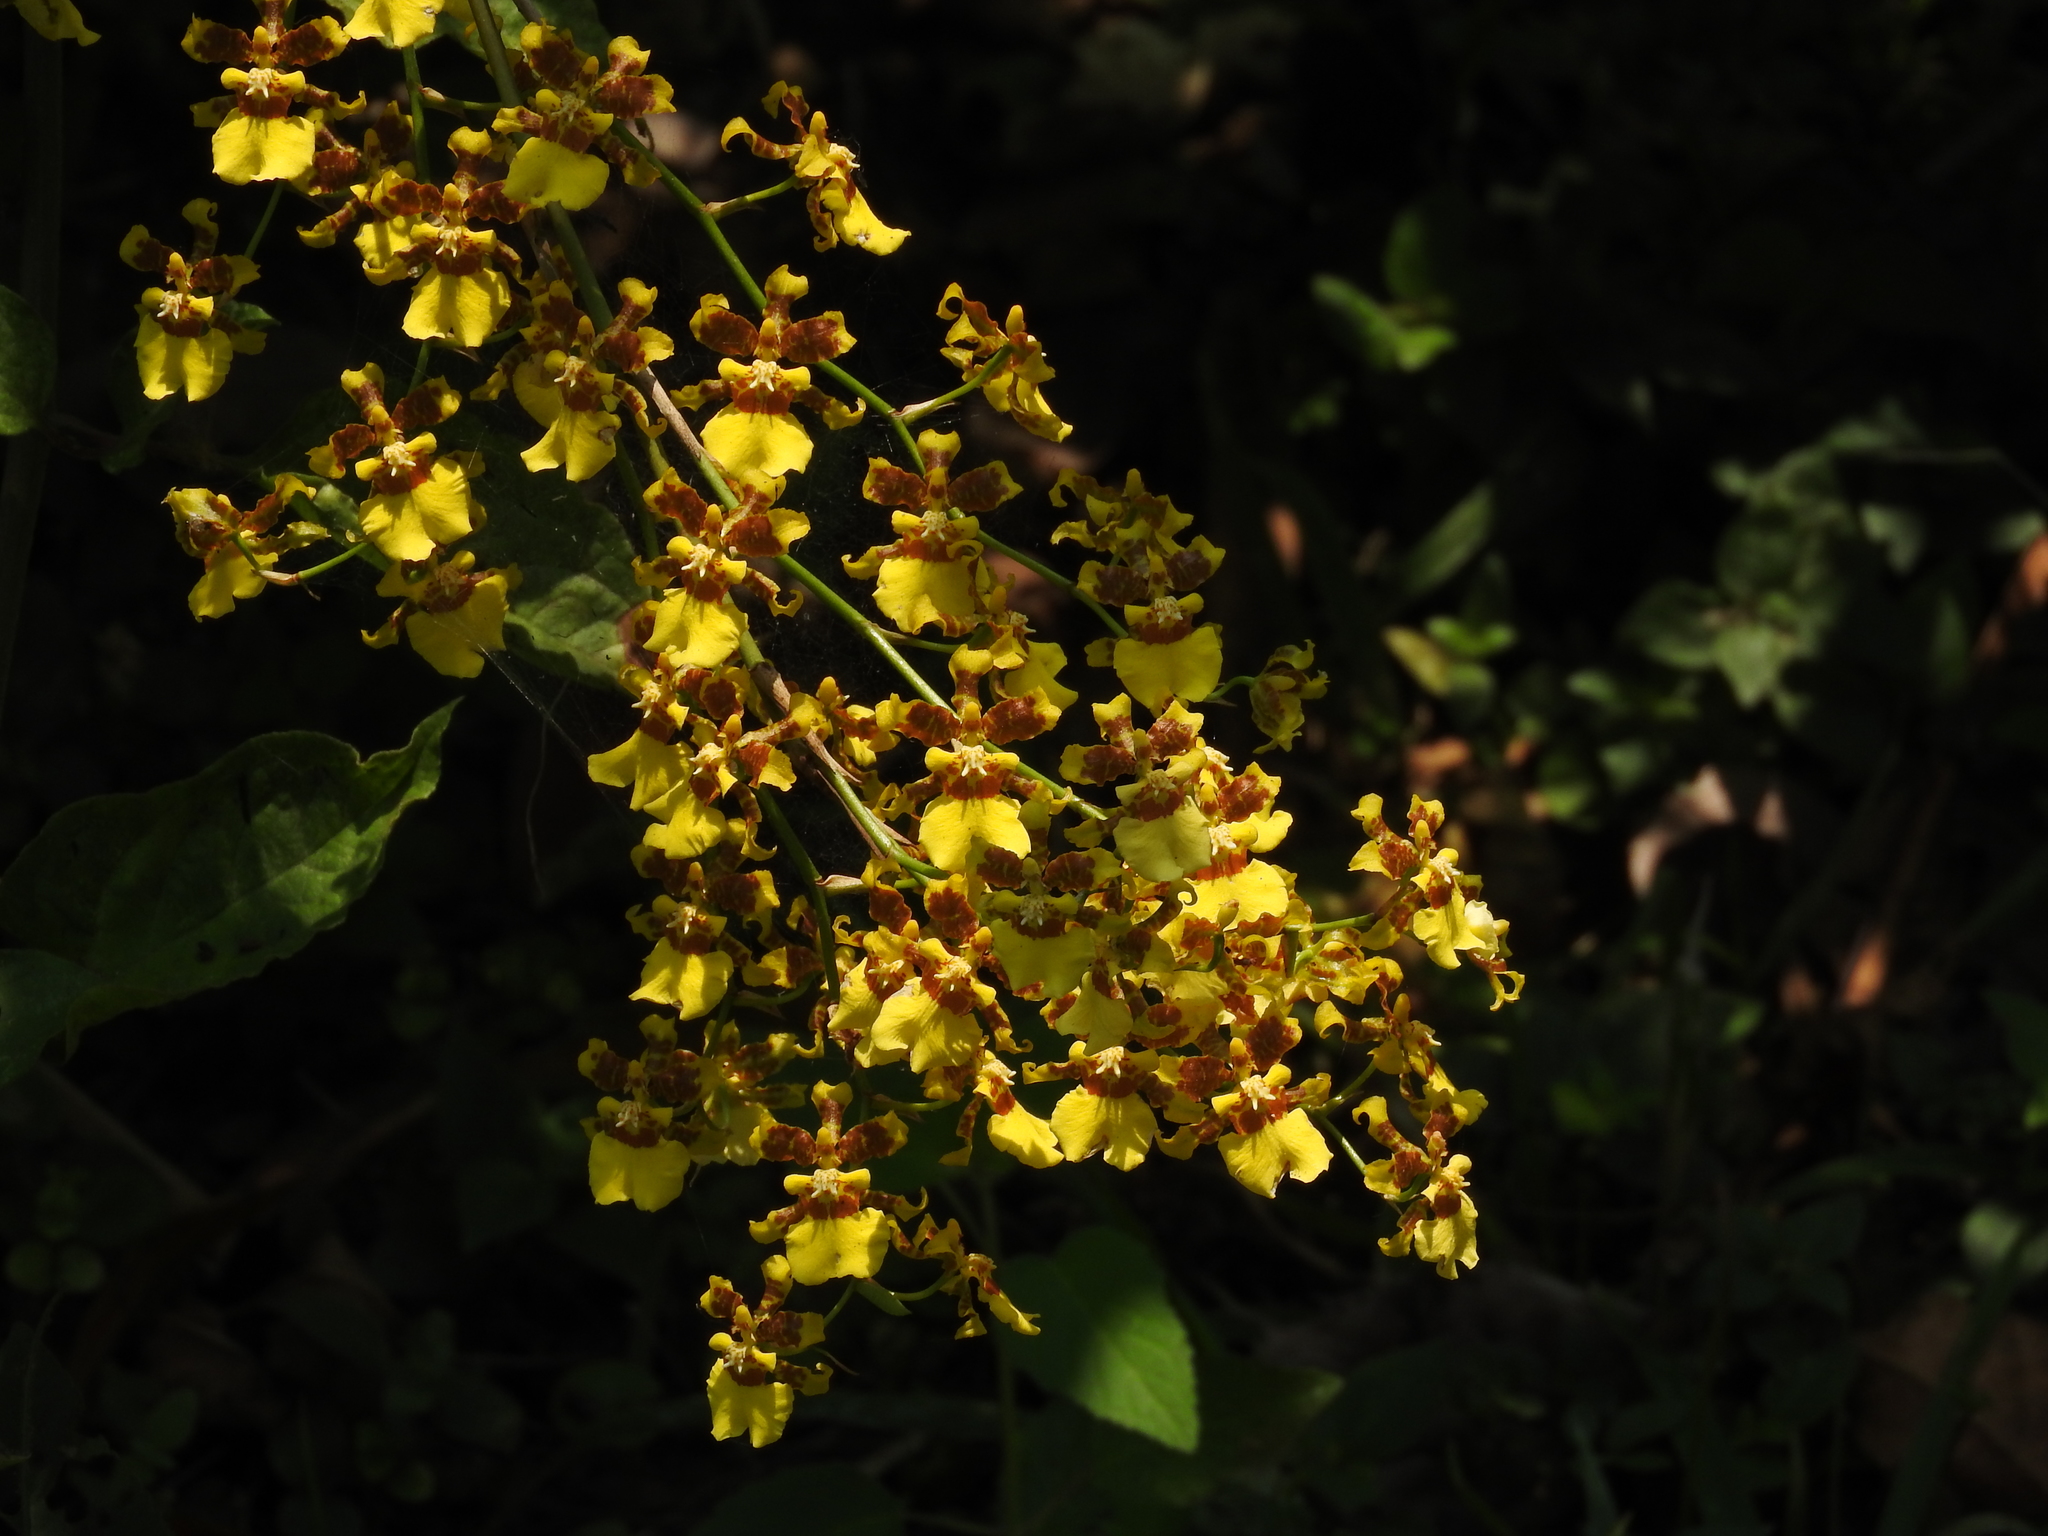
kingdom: Plantae
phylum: Tracheophyta
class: Liliopsida
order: Asparagales
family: Orchidaceae
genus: Oncidium
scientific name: Oncidium sphacelatum
